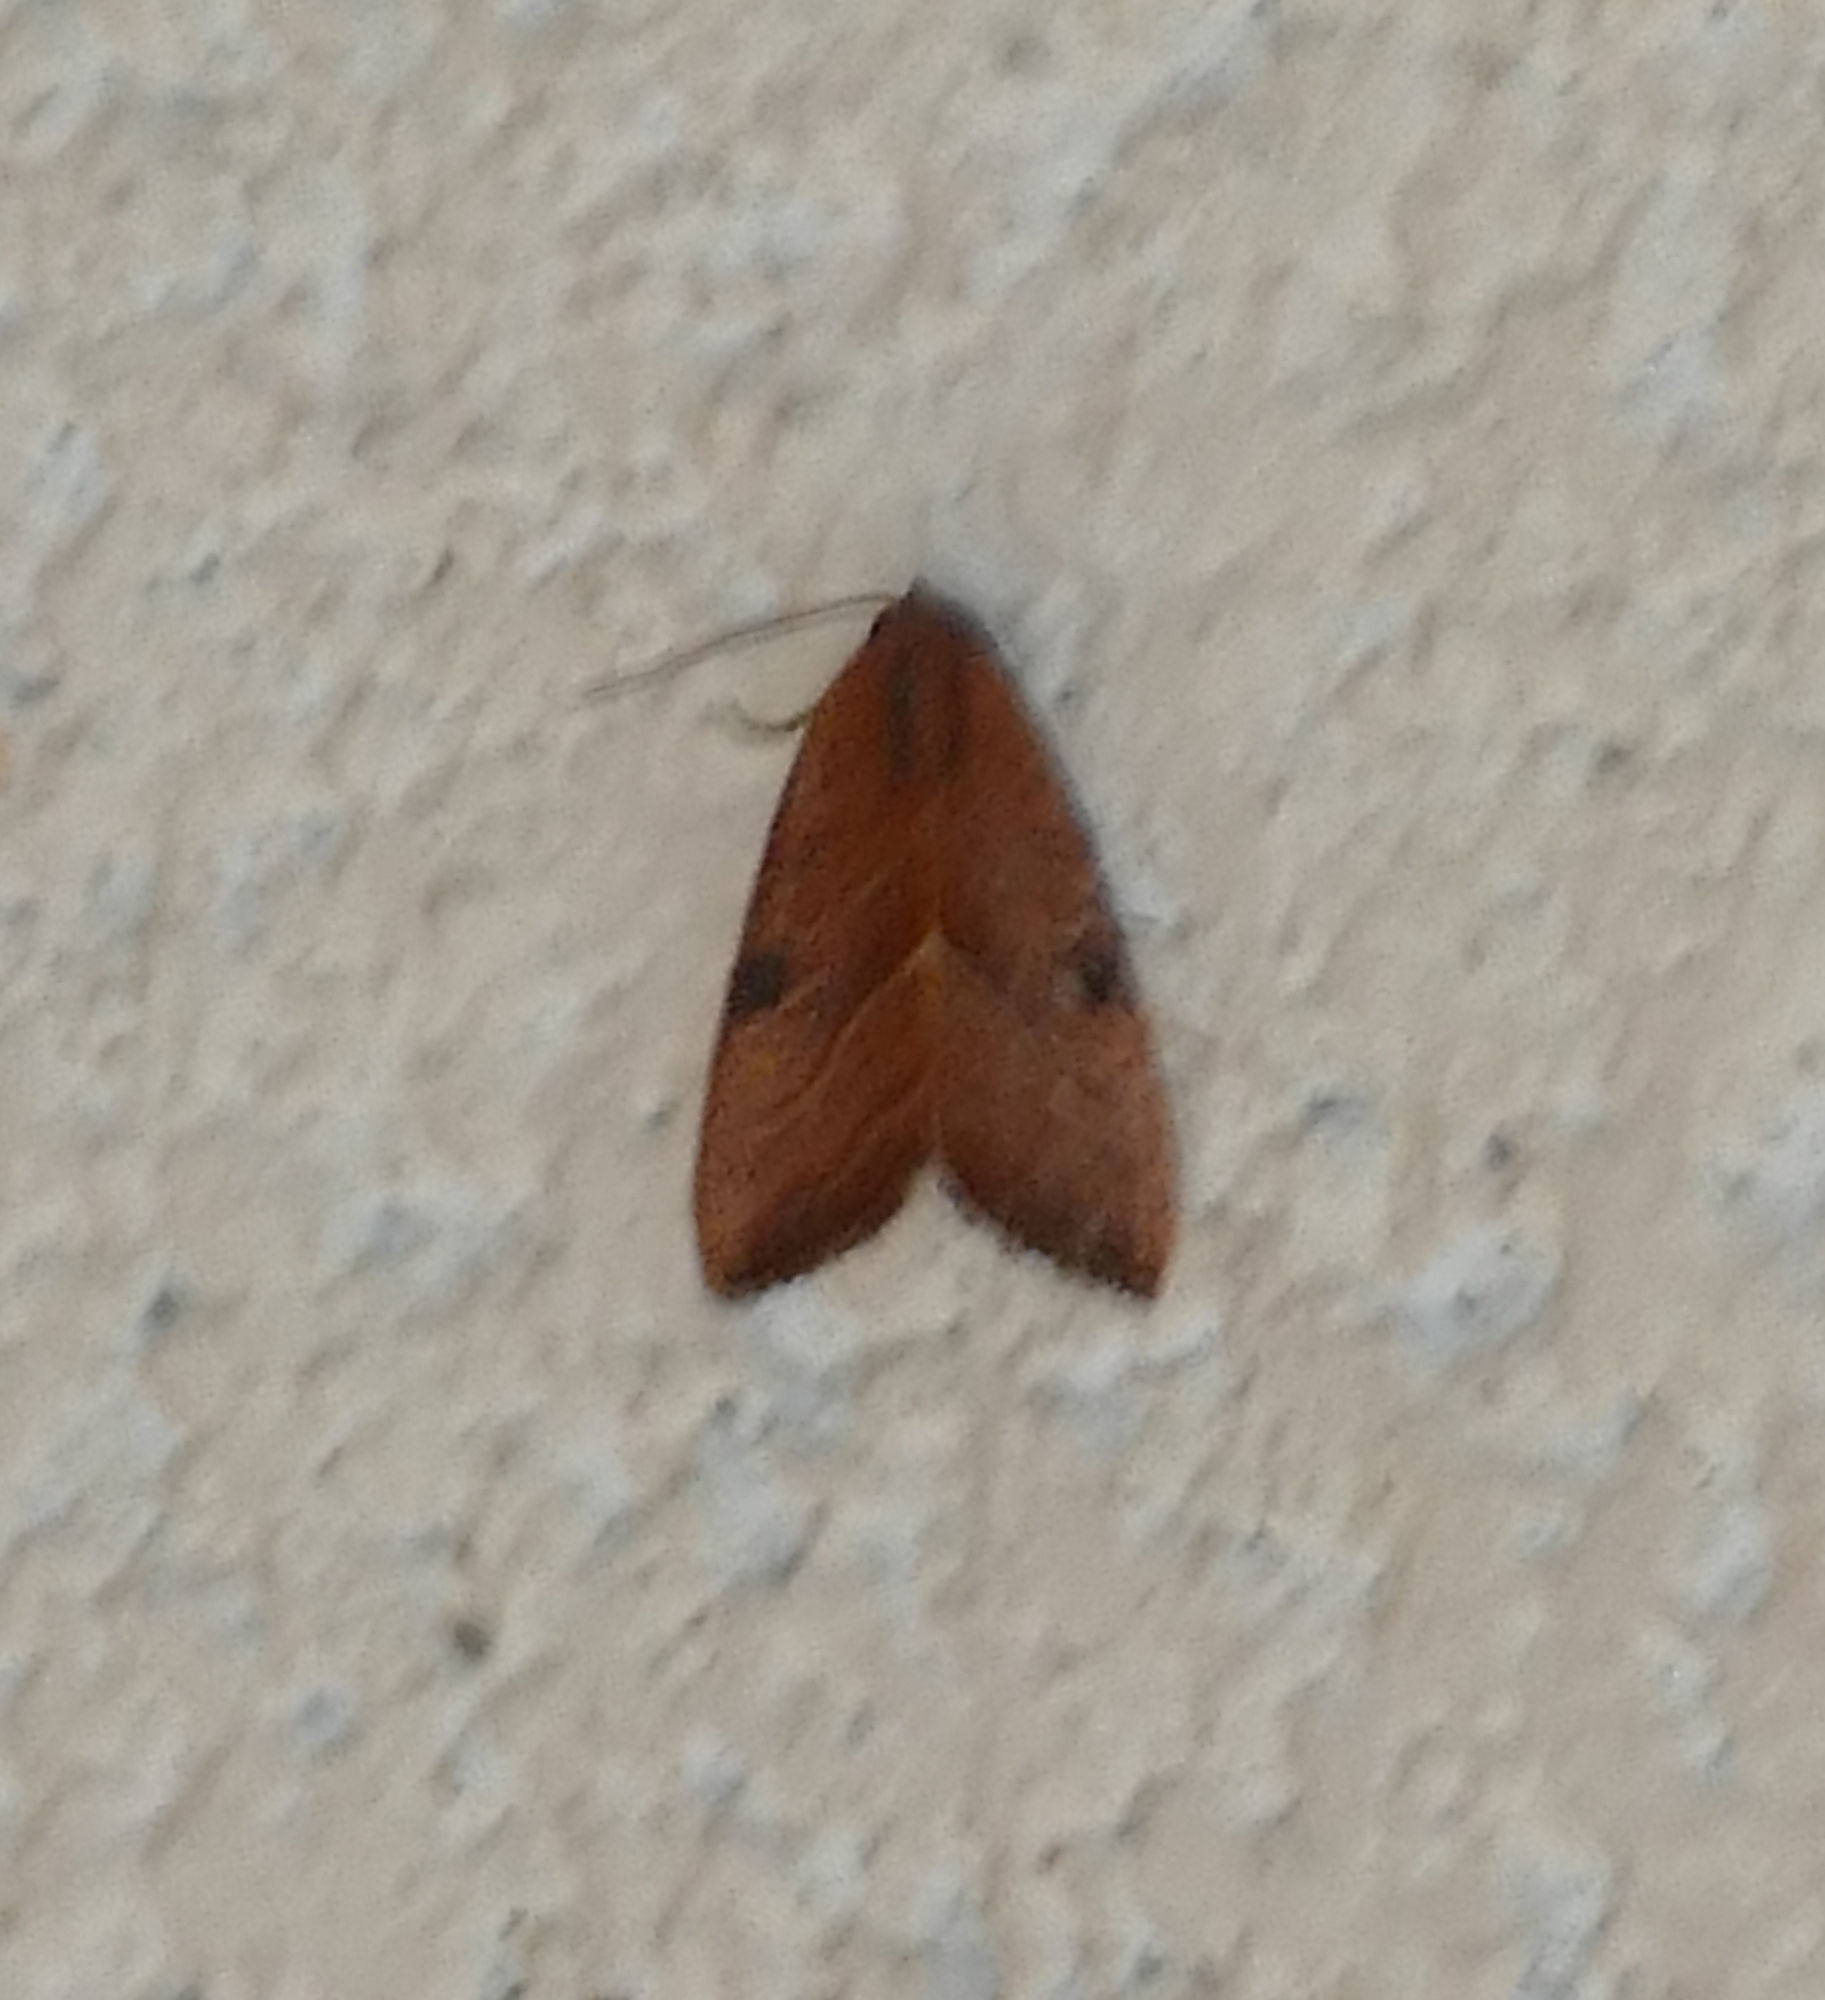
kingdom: Animalia
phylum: Arthropoda
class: Insecta
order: Lepidoptera
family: Noctuidae
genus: Galgula
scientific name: Galgula partita
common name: Wedgeling
